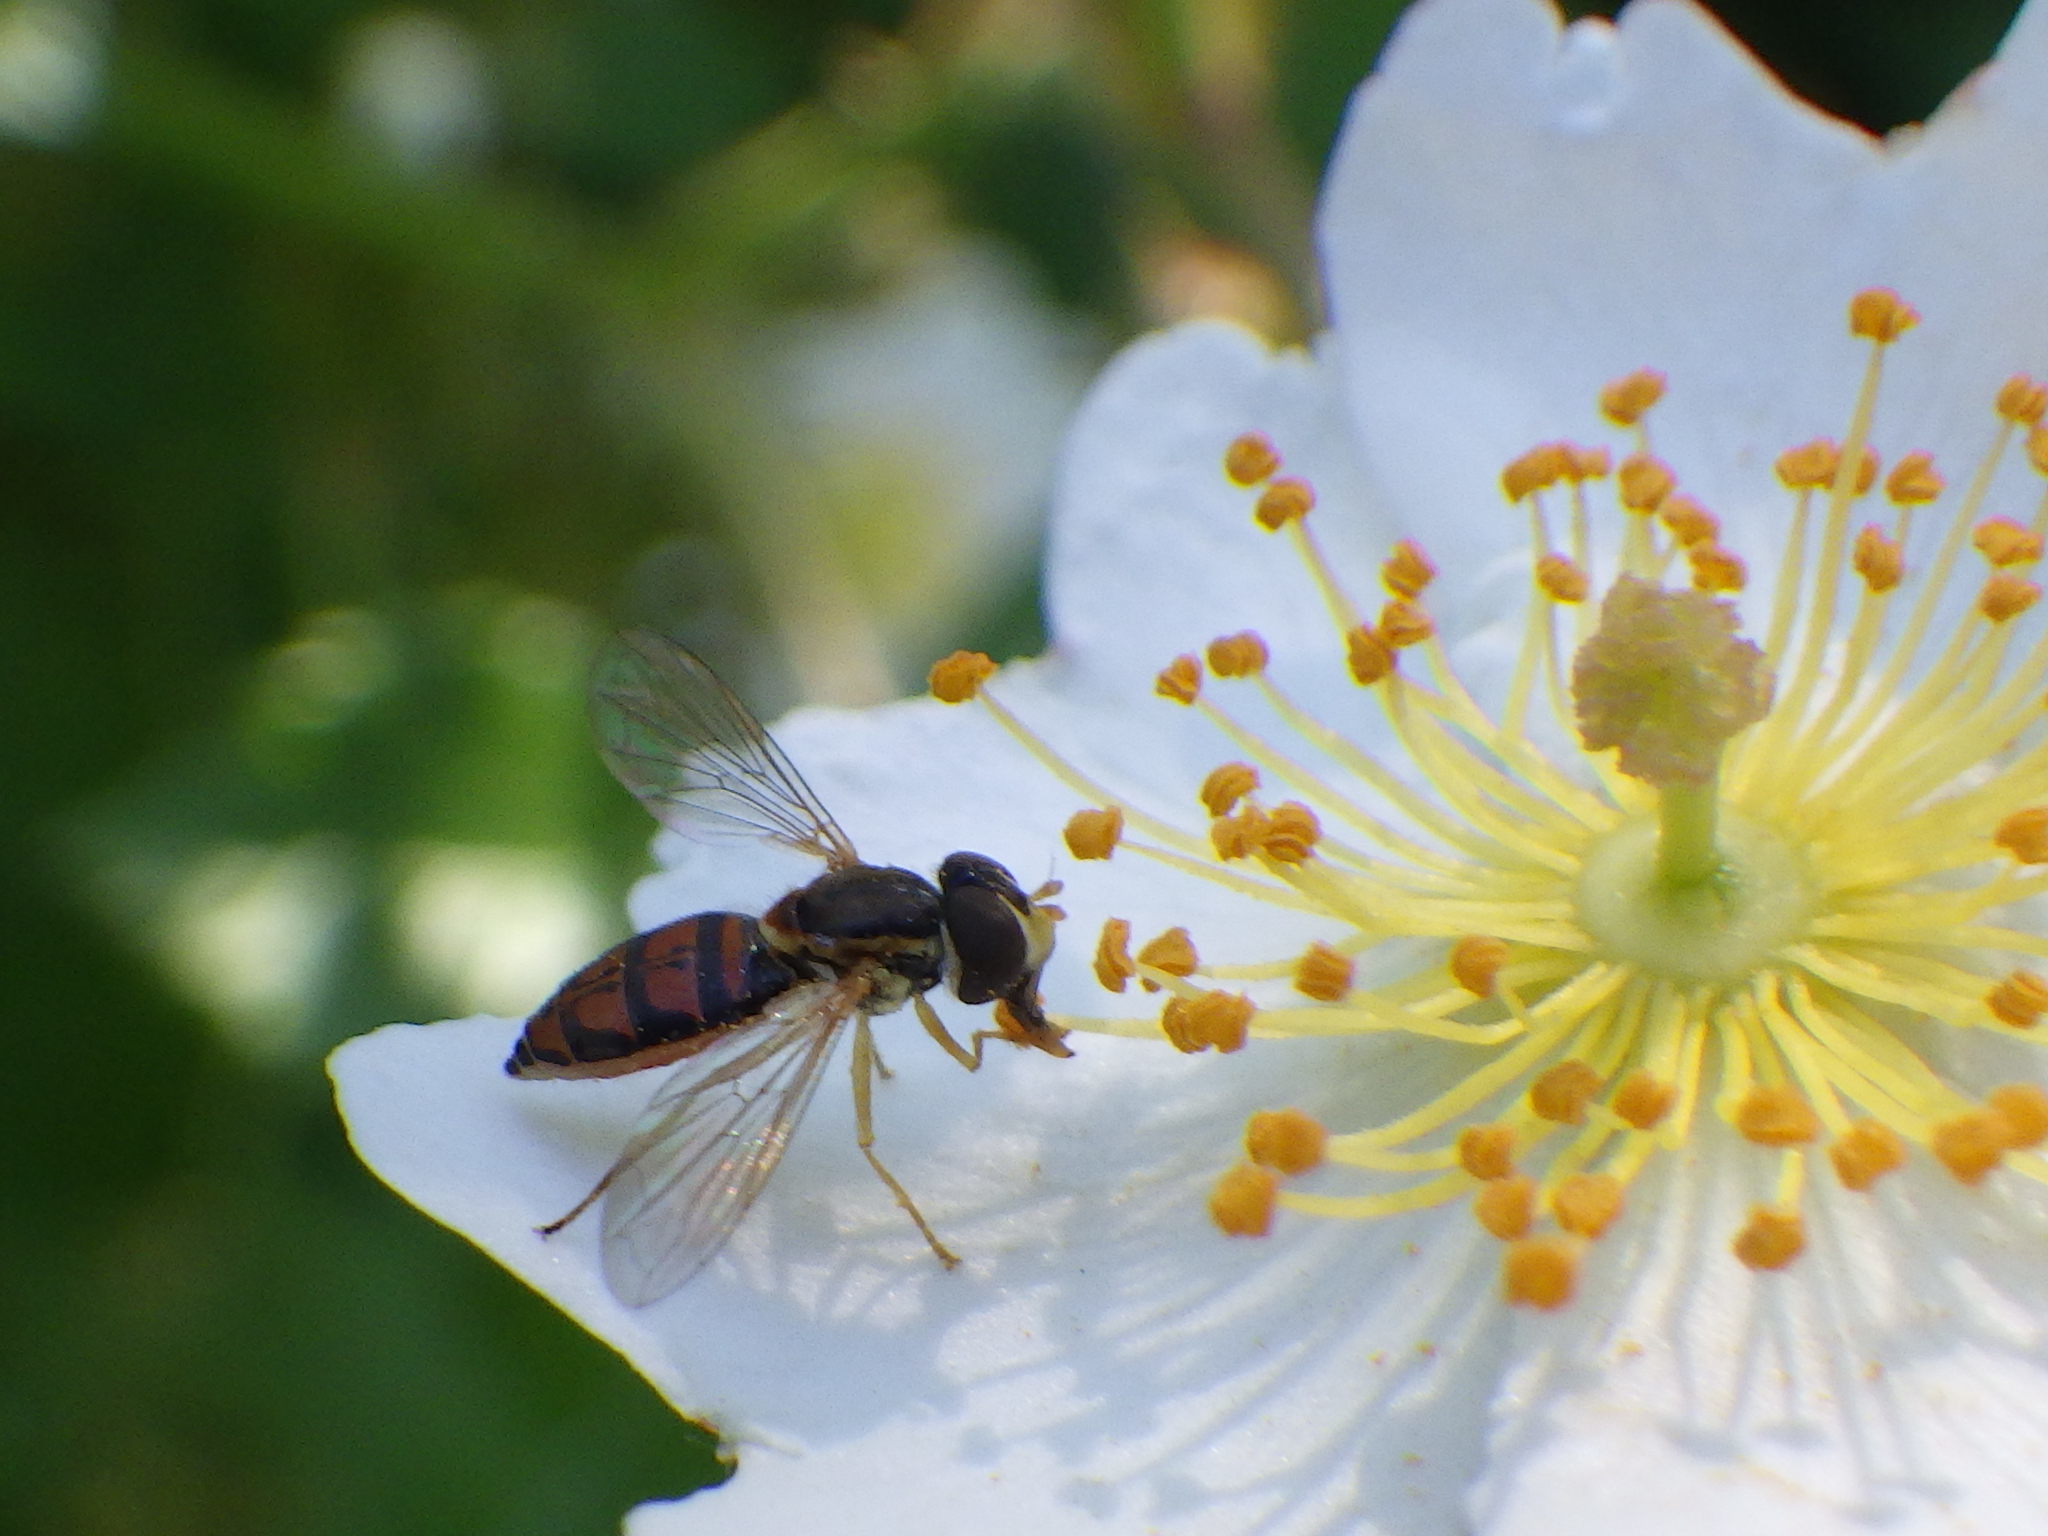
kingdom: Animalia
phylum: Arthropoda
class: Insecta
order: Diptera
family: Syrphidae
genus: Toxomerus
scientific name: Toxomerus marginatus
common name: Syrphid fly
